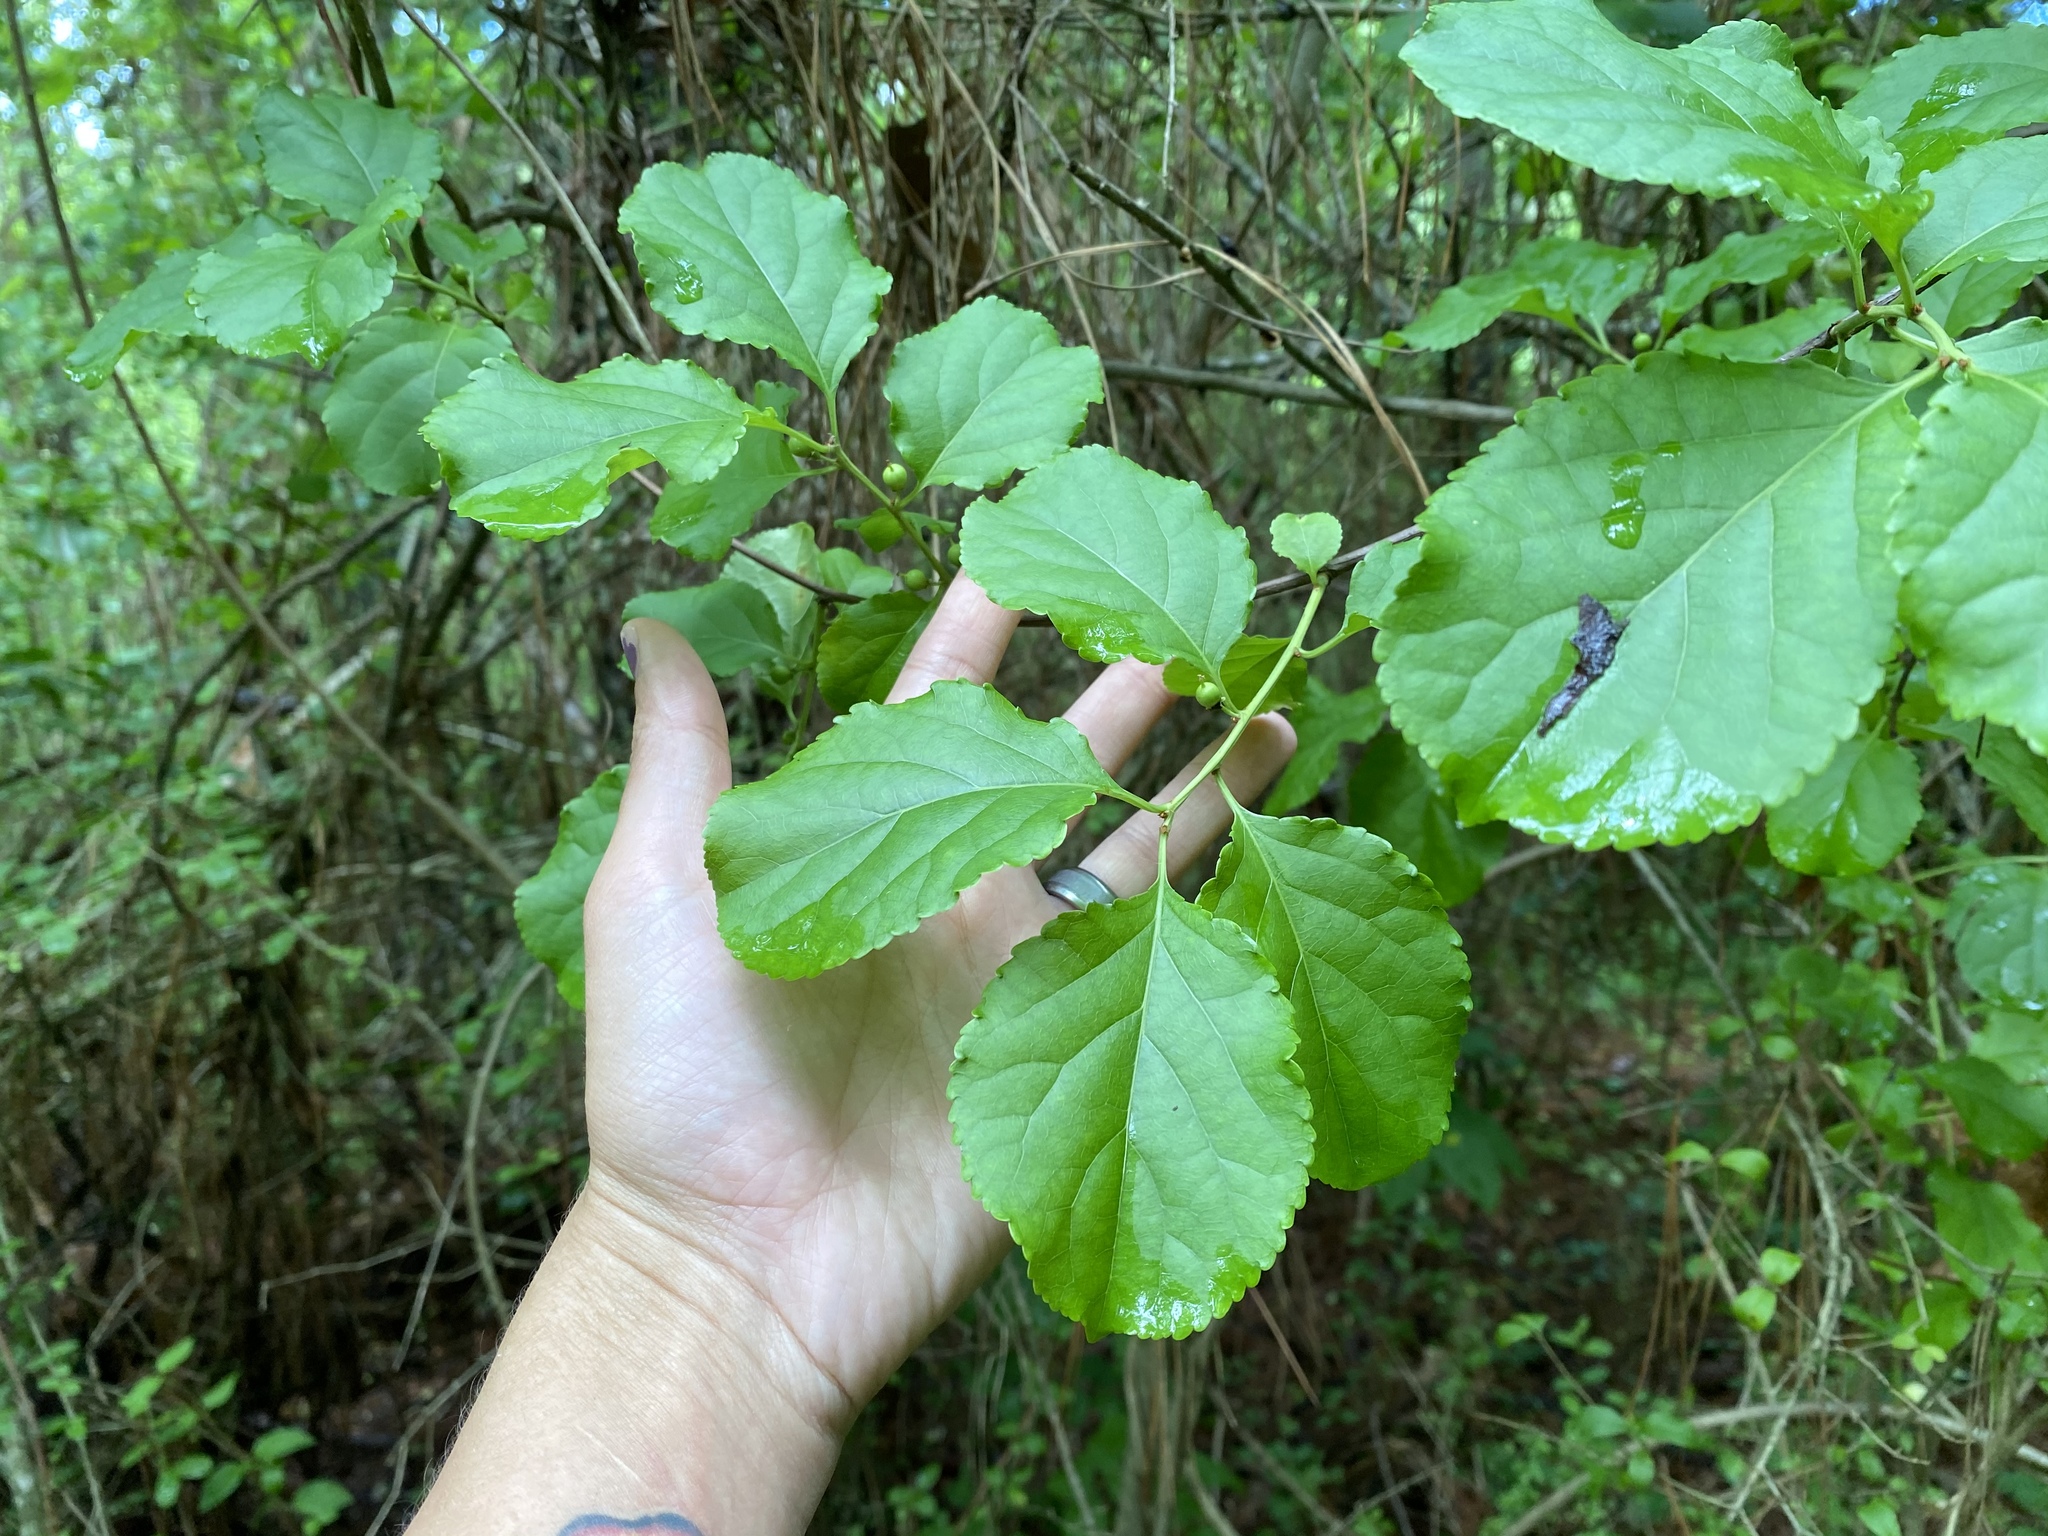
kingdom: Plantae
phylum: Tracheophyta
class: Magnoliopsida
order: Celastrales
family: Celastraceae
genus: Celastrus
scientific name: Celastrus orbiculatus
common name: Oriental bittersweet
